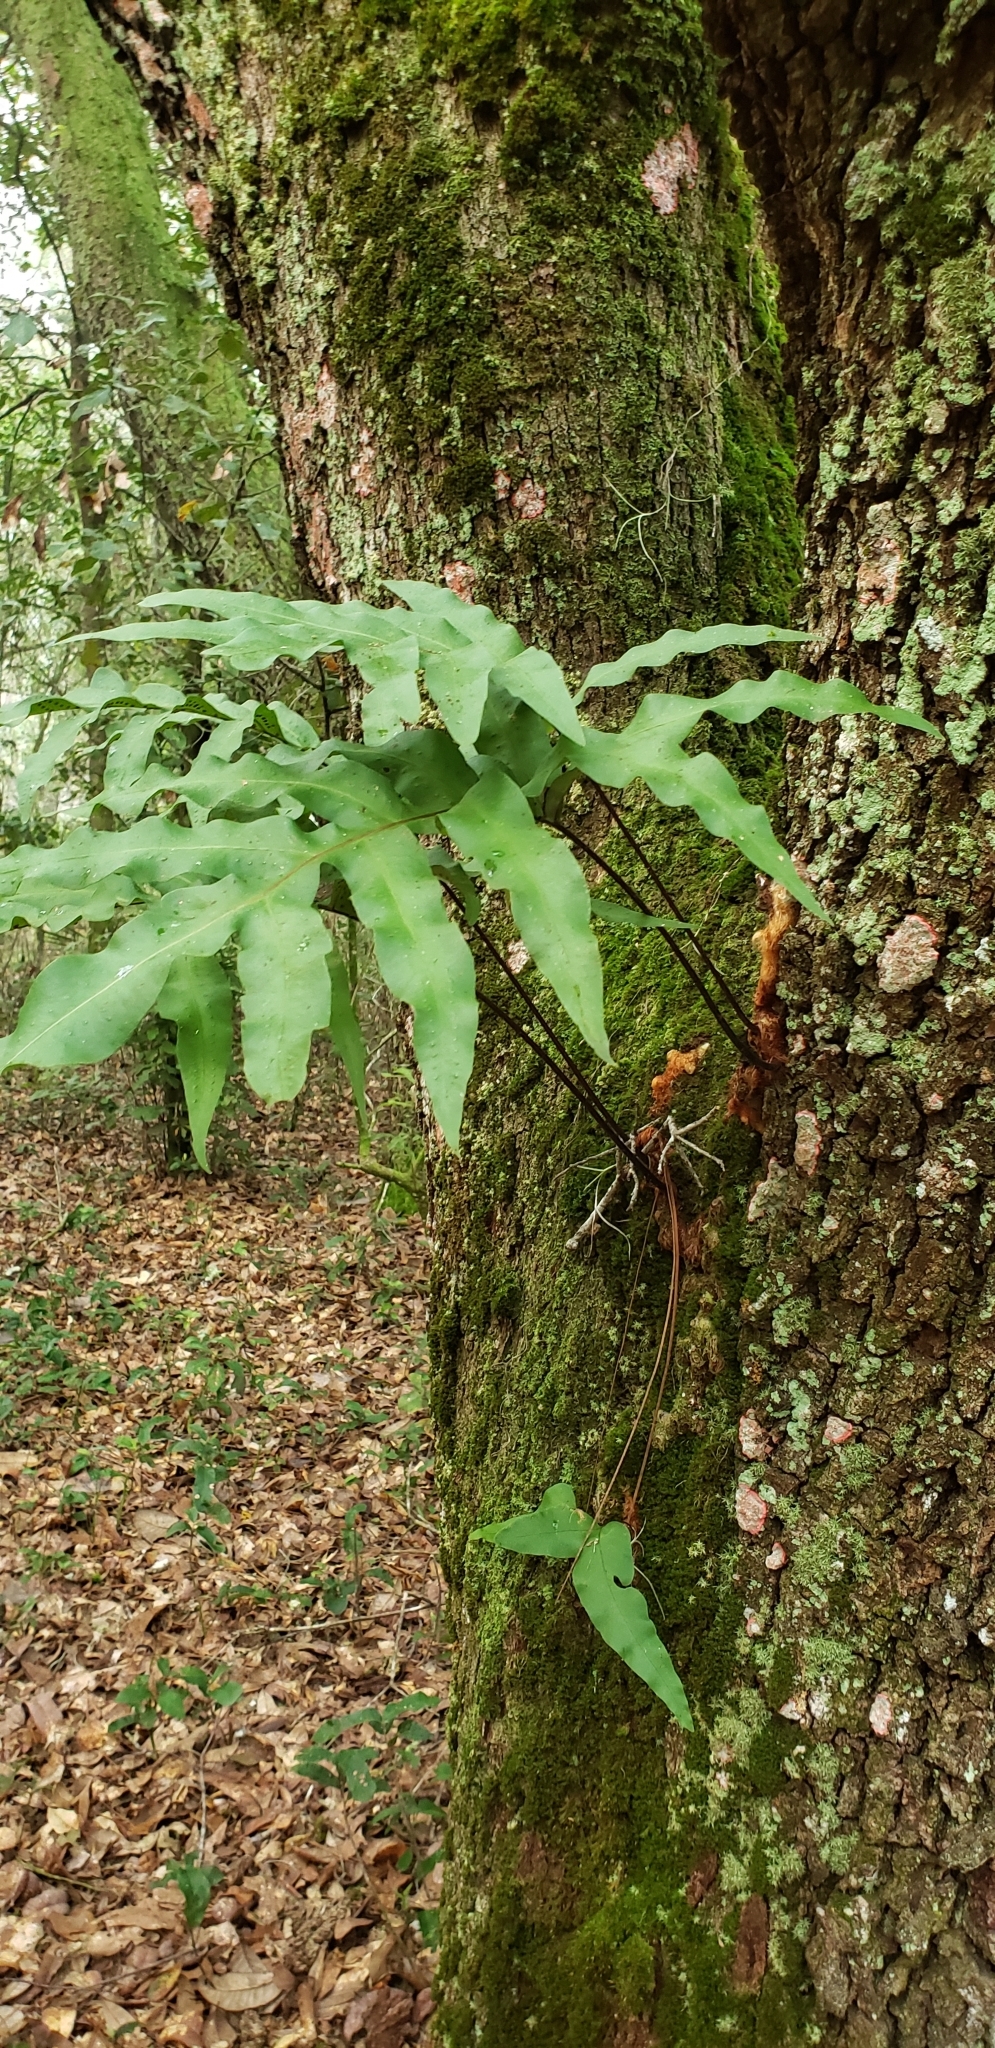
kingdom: Plantae
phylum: Tracheophyta
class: Polypodiopsida
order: Polypodiales
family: Polypodiaceae
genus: Phlebodium
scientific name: Phlebodium aureum
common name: Gold-foot fern
